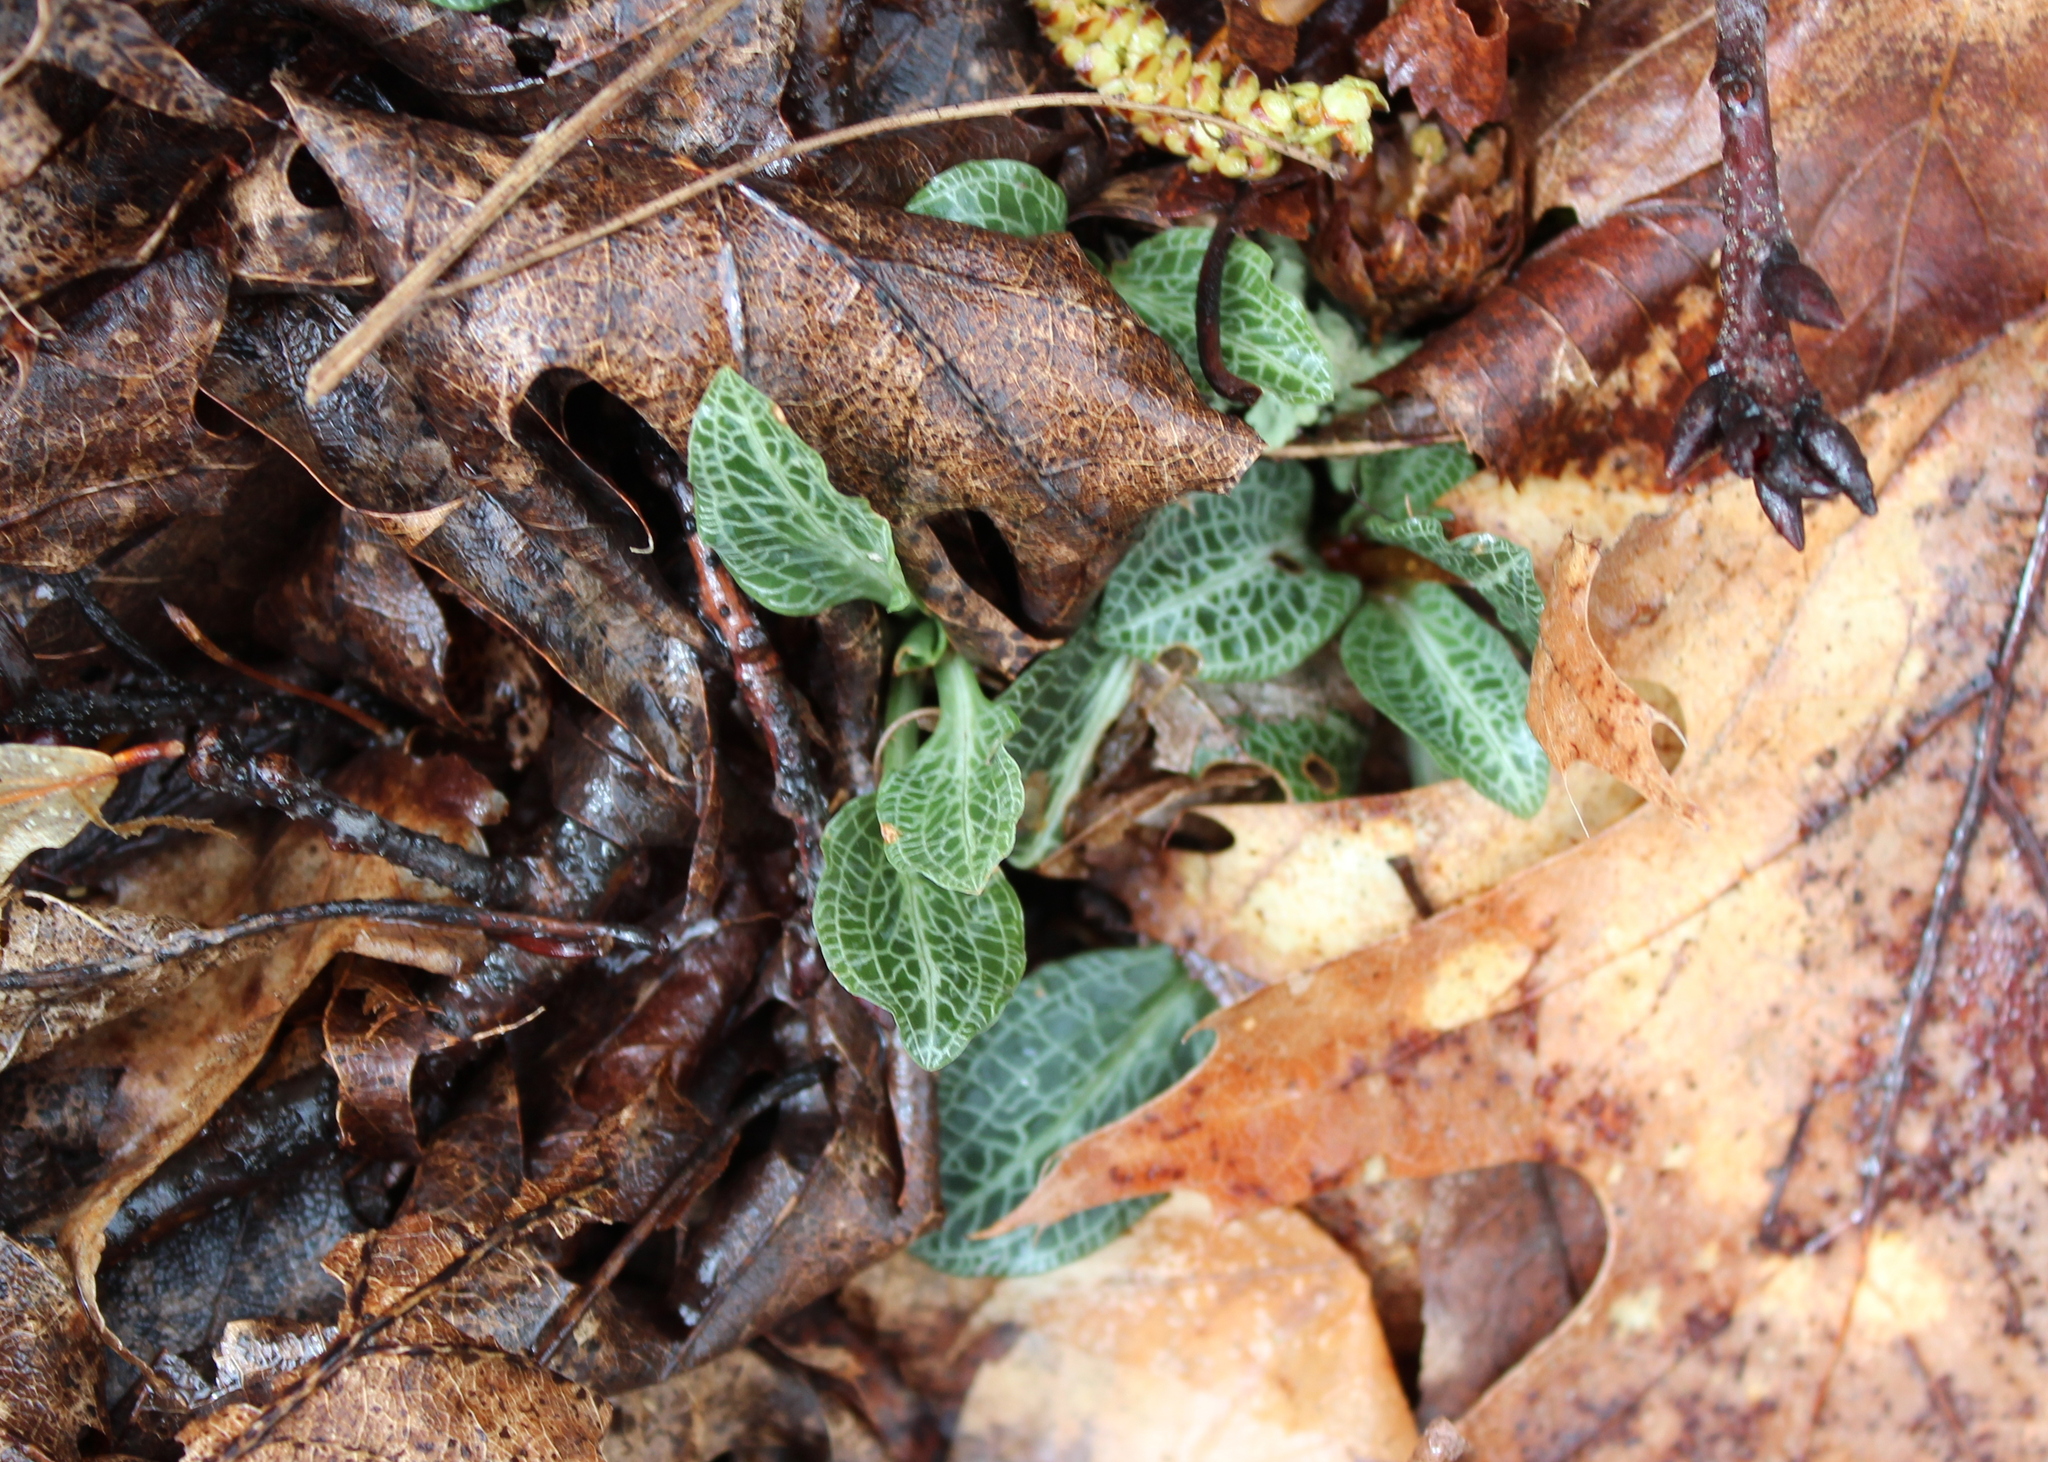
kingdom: Plantae
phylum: Tracheophyta
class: Liliopsida
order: Asparagales
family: Orchidaceae
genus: Goodyera
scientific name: Goodyera pubescens
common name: Downy rattlesnake-plantain
